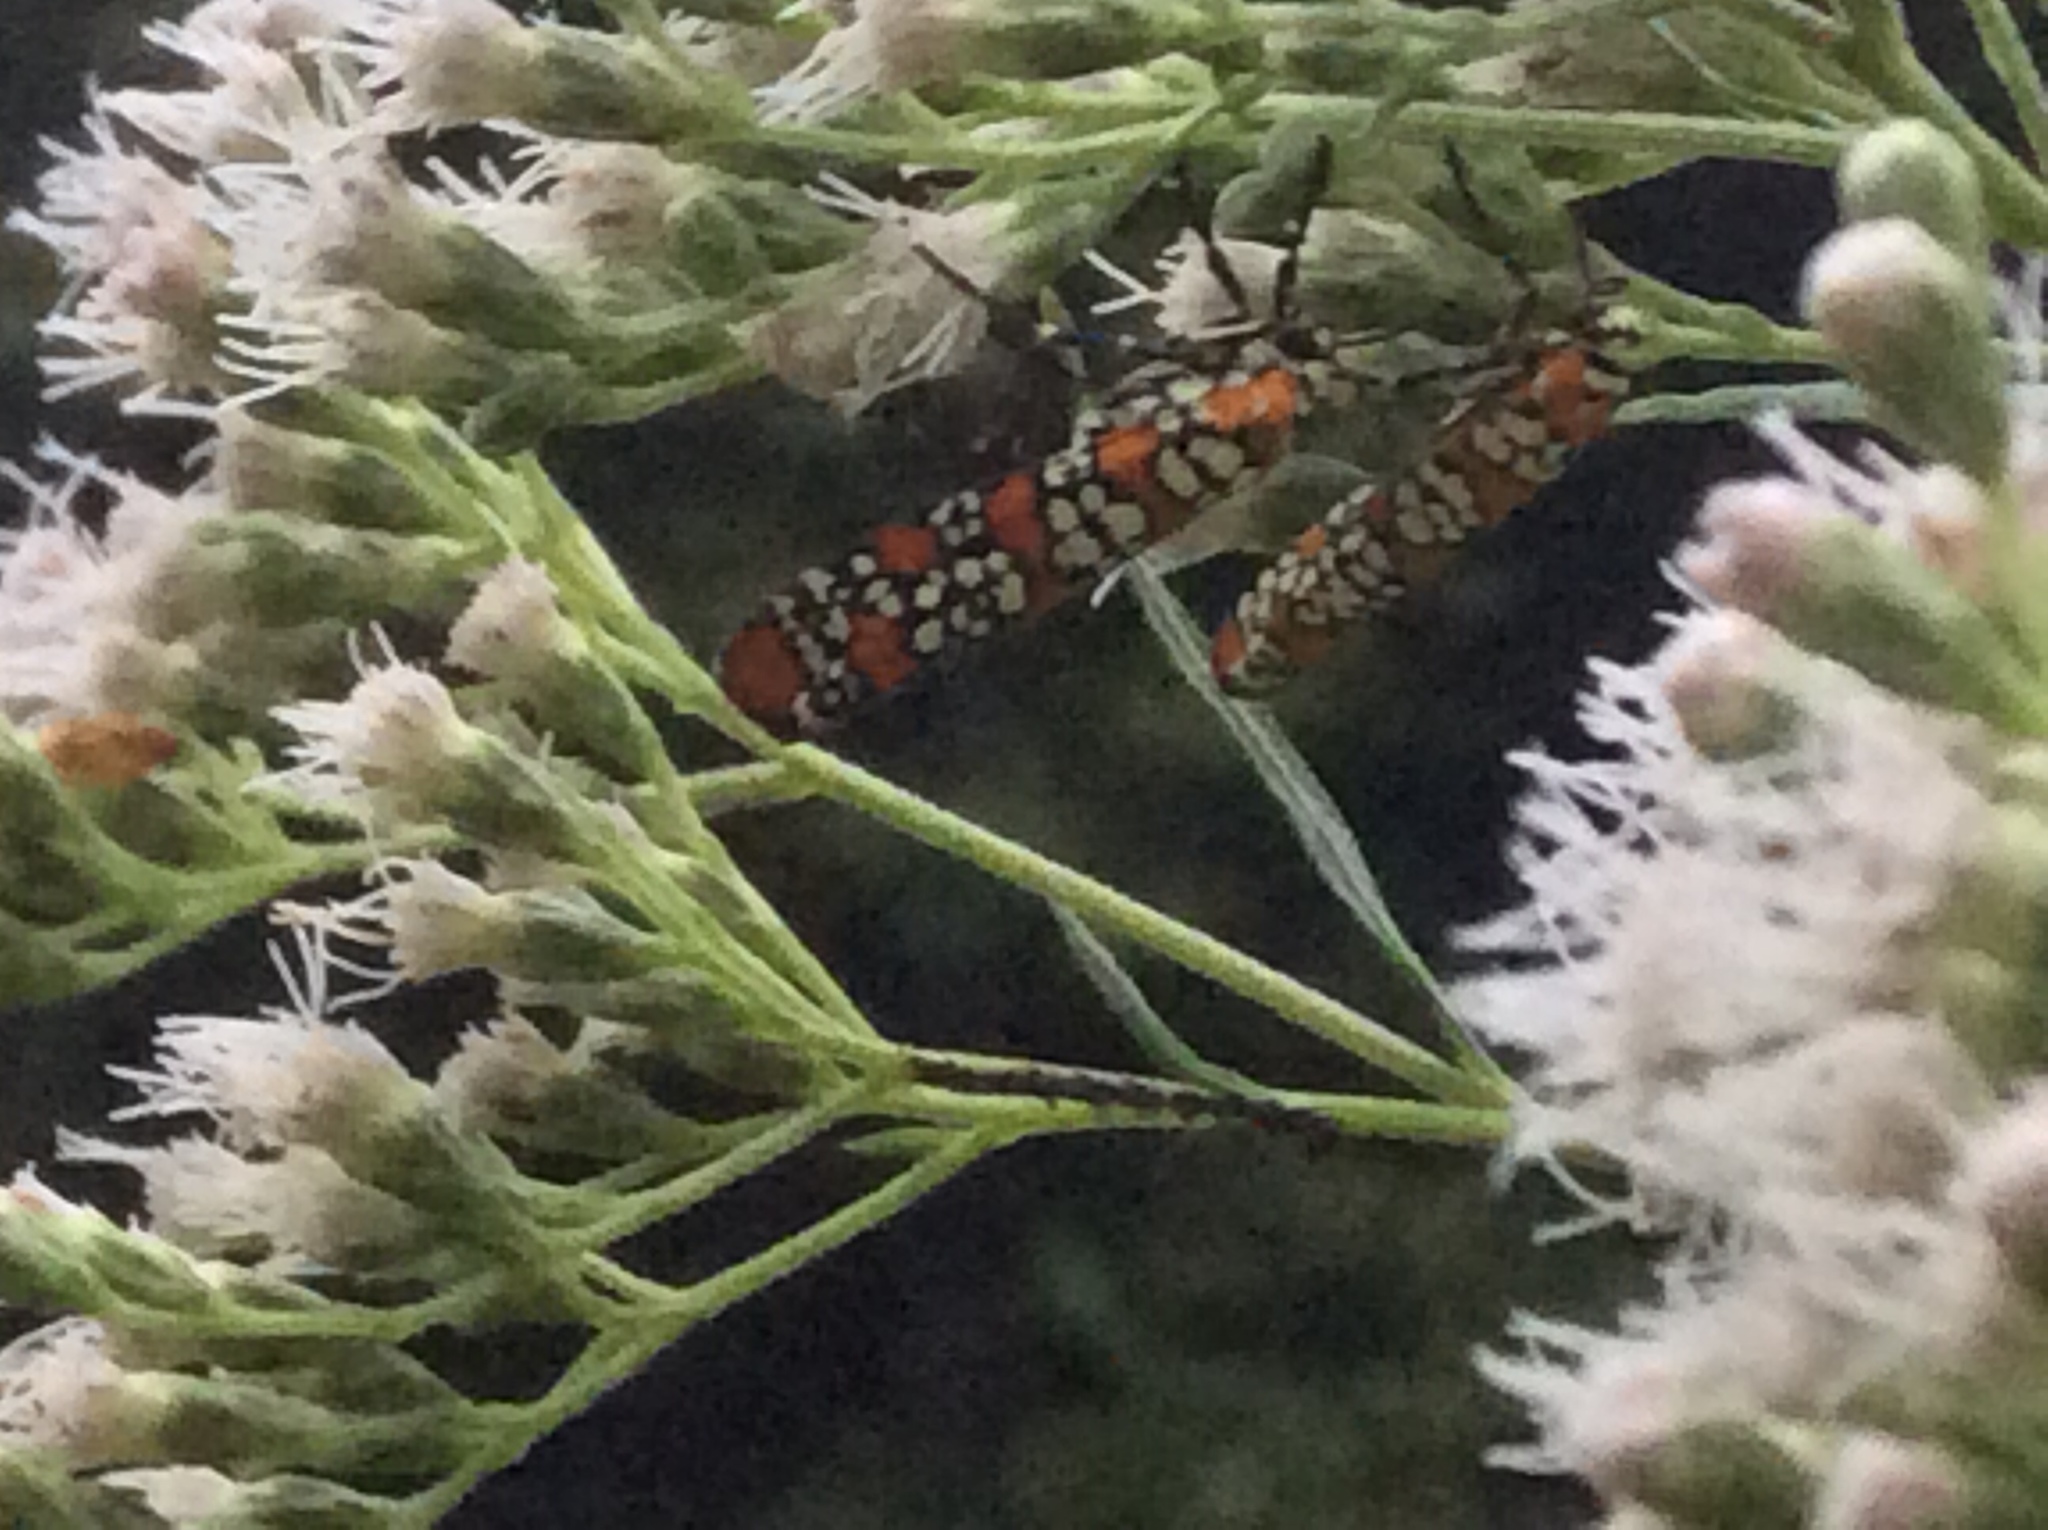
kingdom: Animalia
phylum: Arthropoda
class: Insecta
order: Lepidoptera
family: Attevidae
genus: Atteva
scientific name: Atteva punctella
